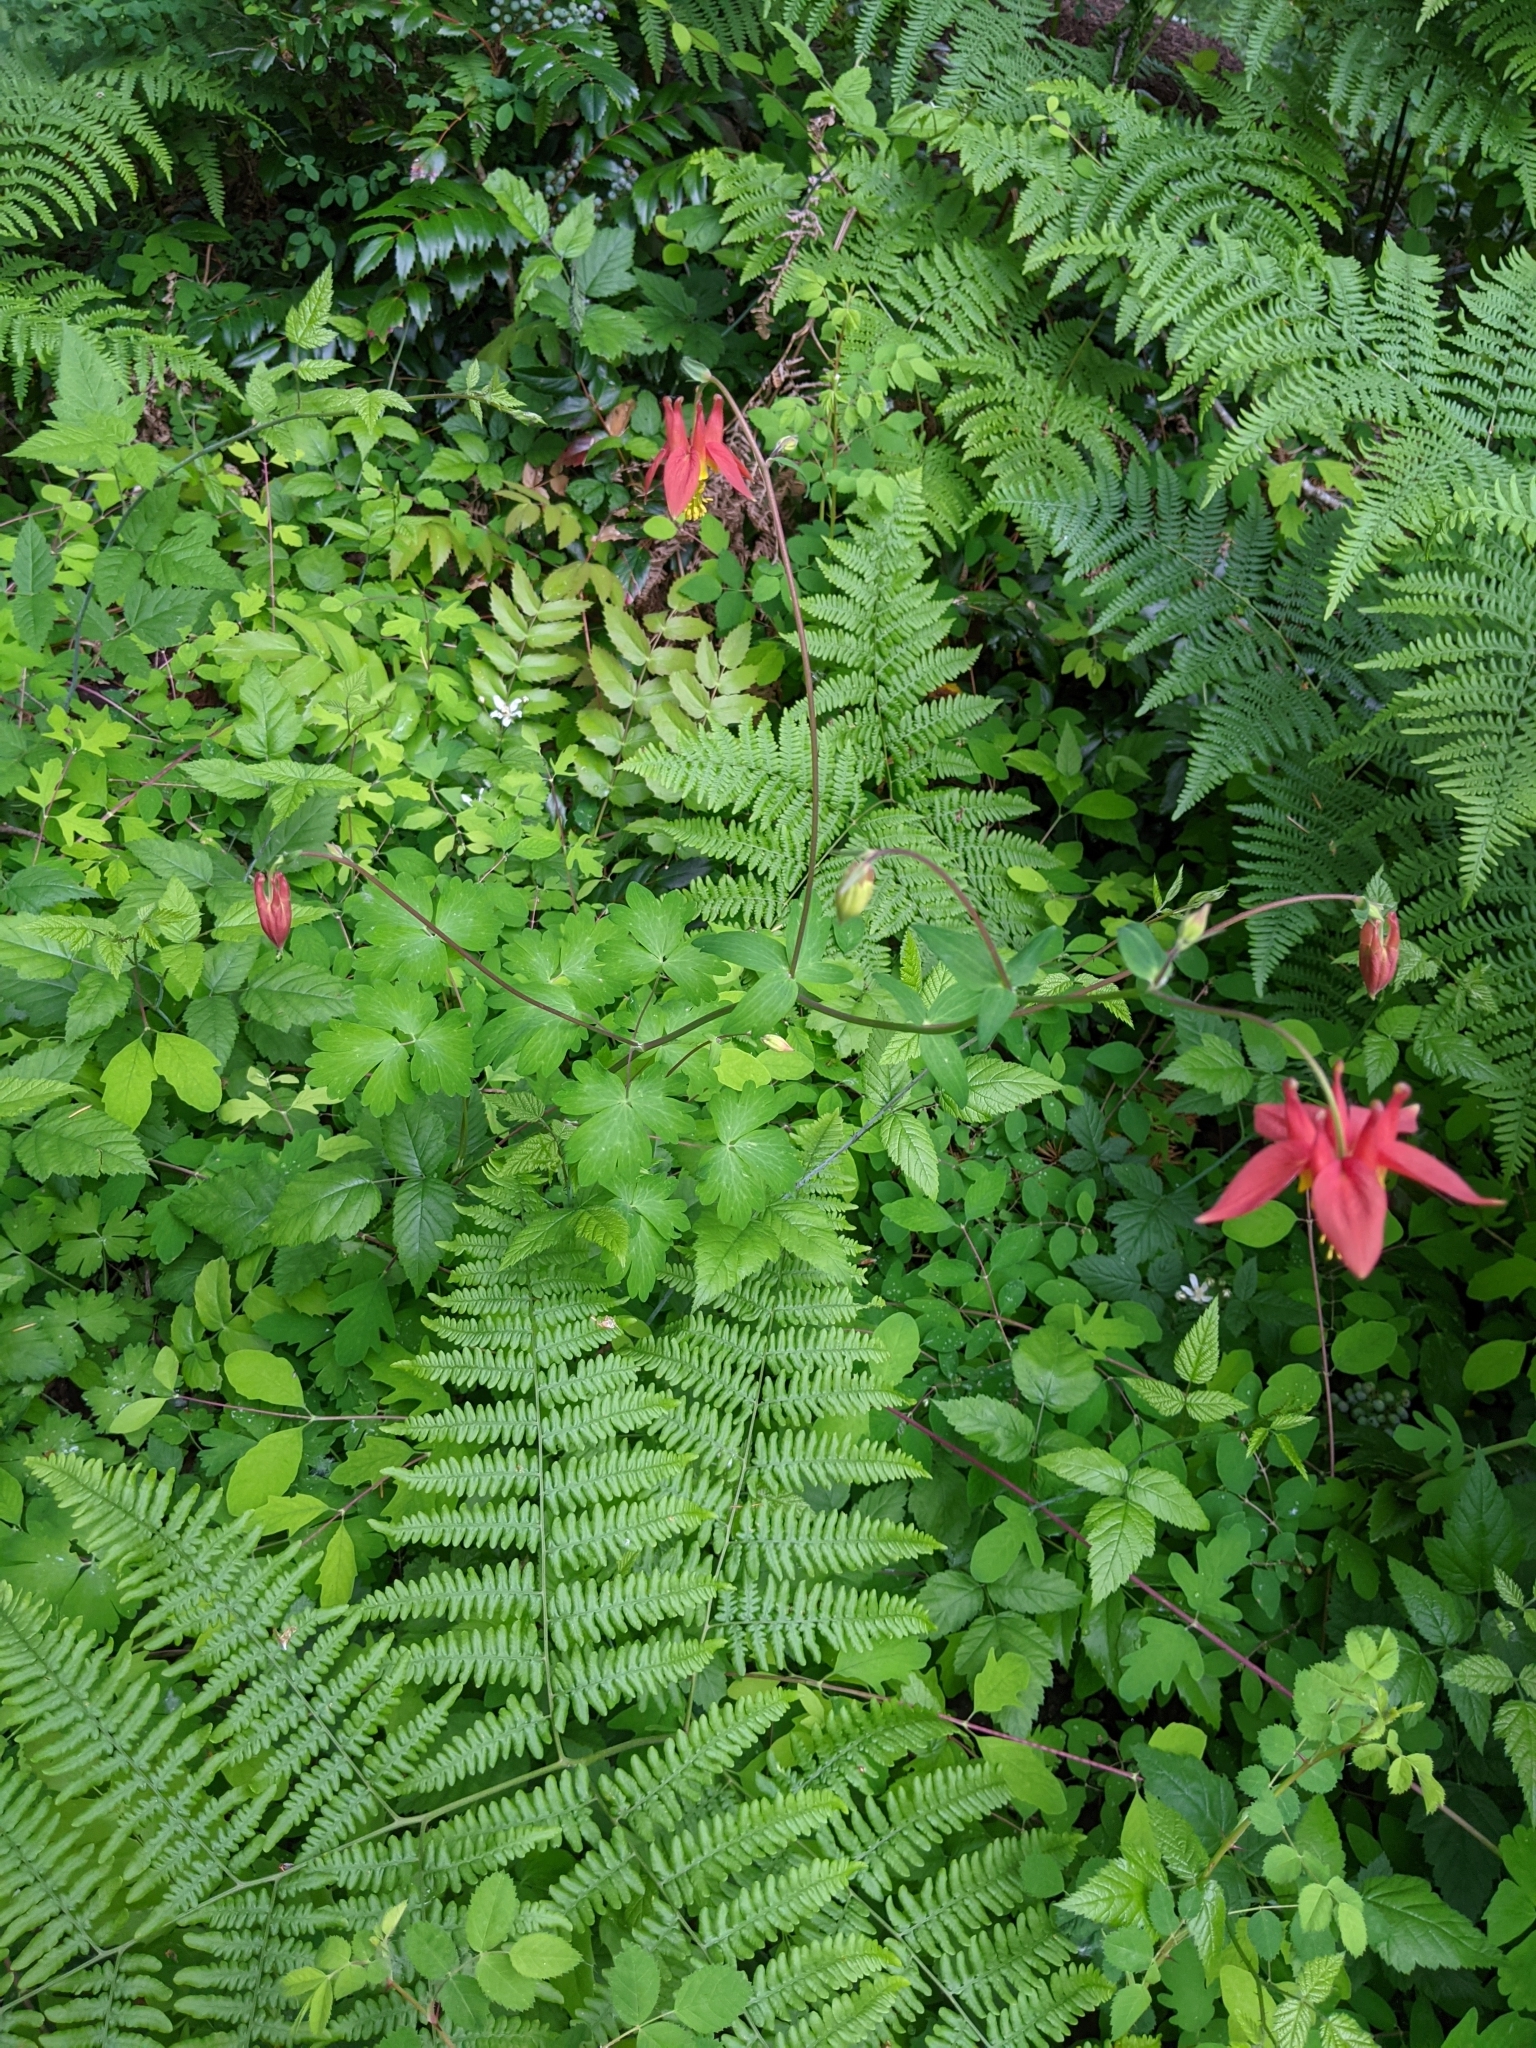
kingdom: Plantae
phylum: Tracheophyta
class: Magnoliopsida
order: Ranunculales
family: Ranunculaceae
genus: Aquilegia
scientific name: Aquilegia formosa
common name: Sitka columbine
